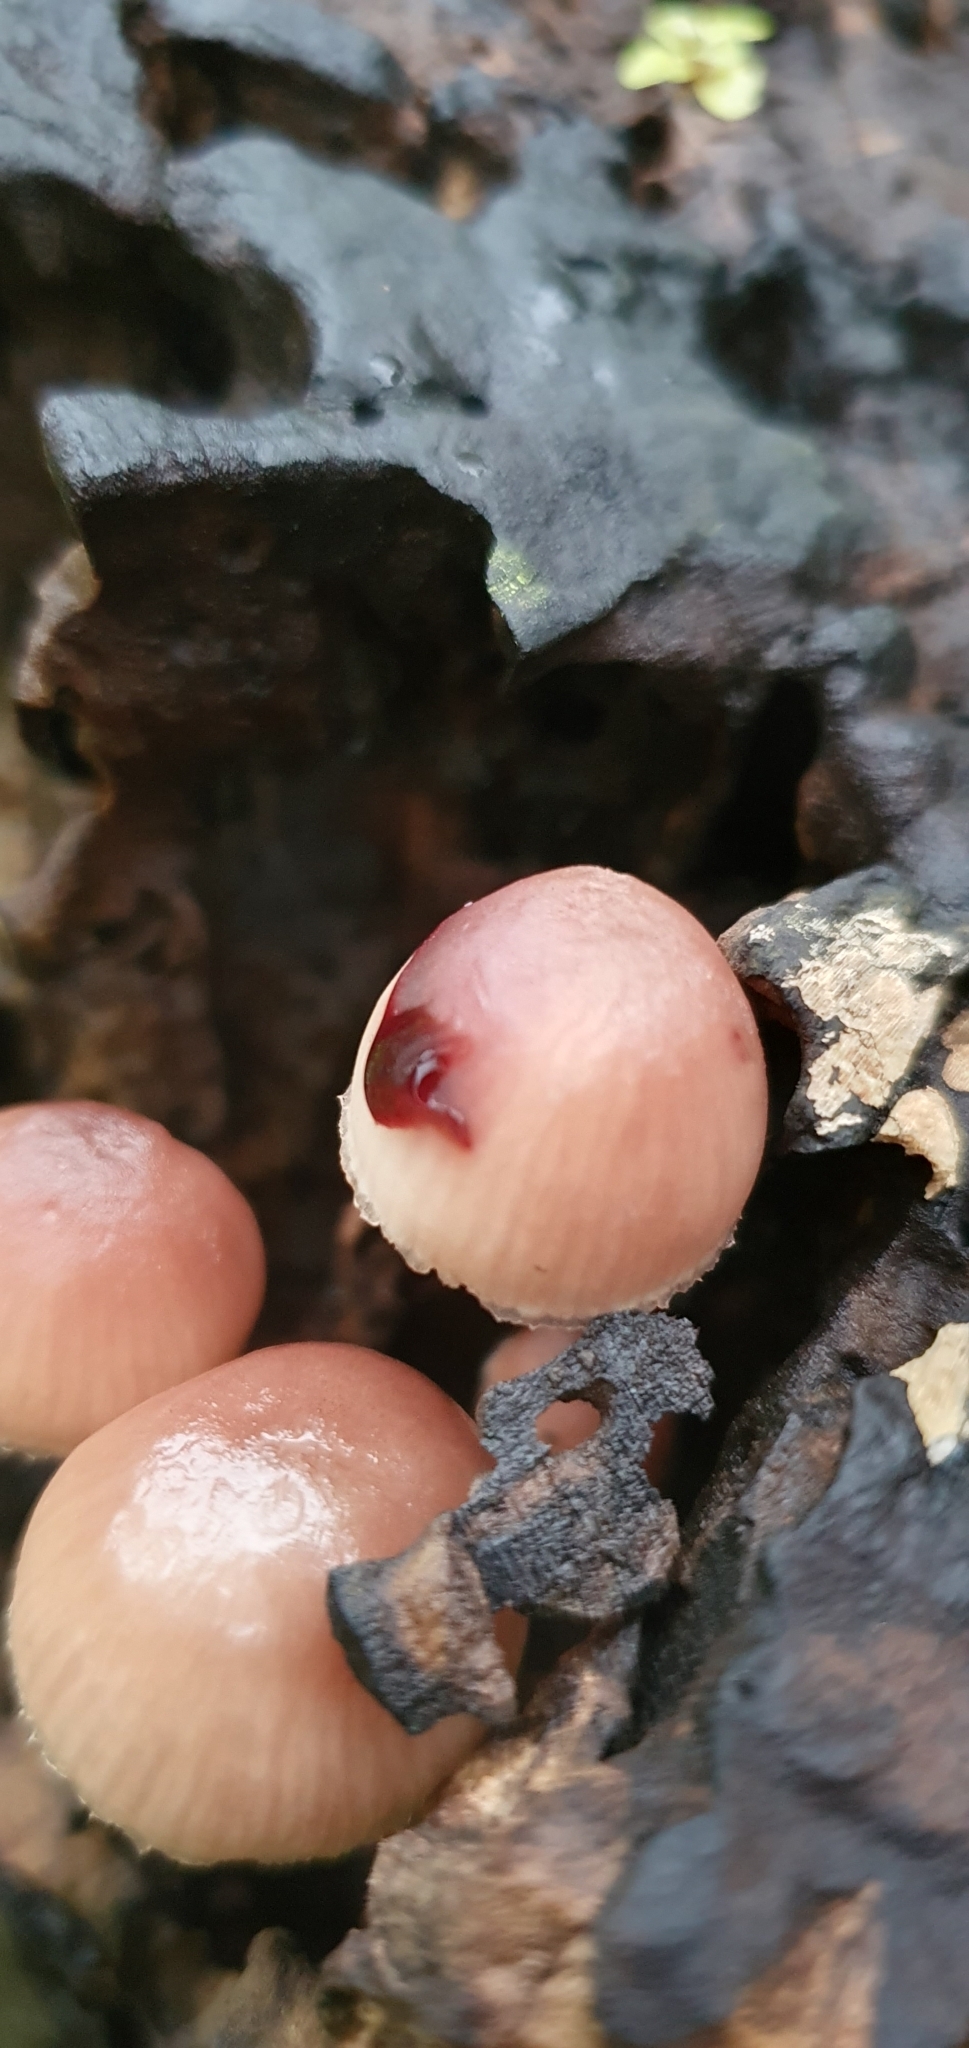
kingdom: Fungi
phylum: Basidiomycota
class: Agaricomycetes
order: Agaricales
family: Mycenaceae
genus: Mycena
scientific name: Mycena haematopus
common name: Burgundydrop bonnet
